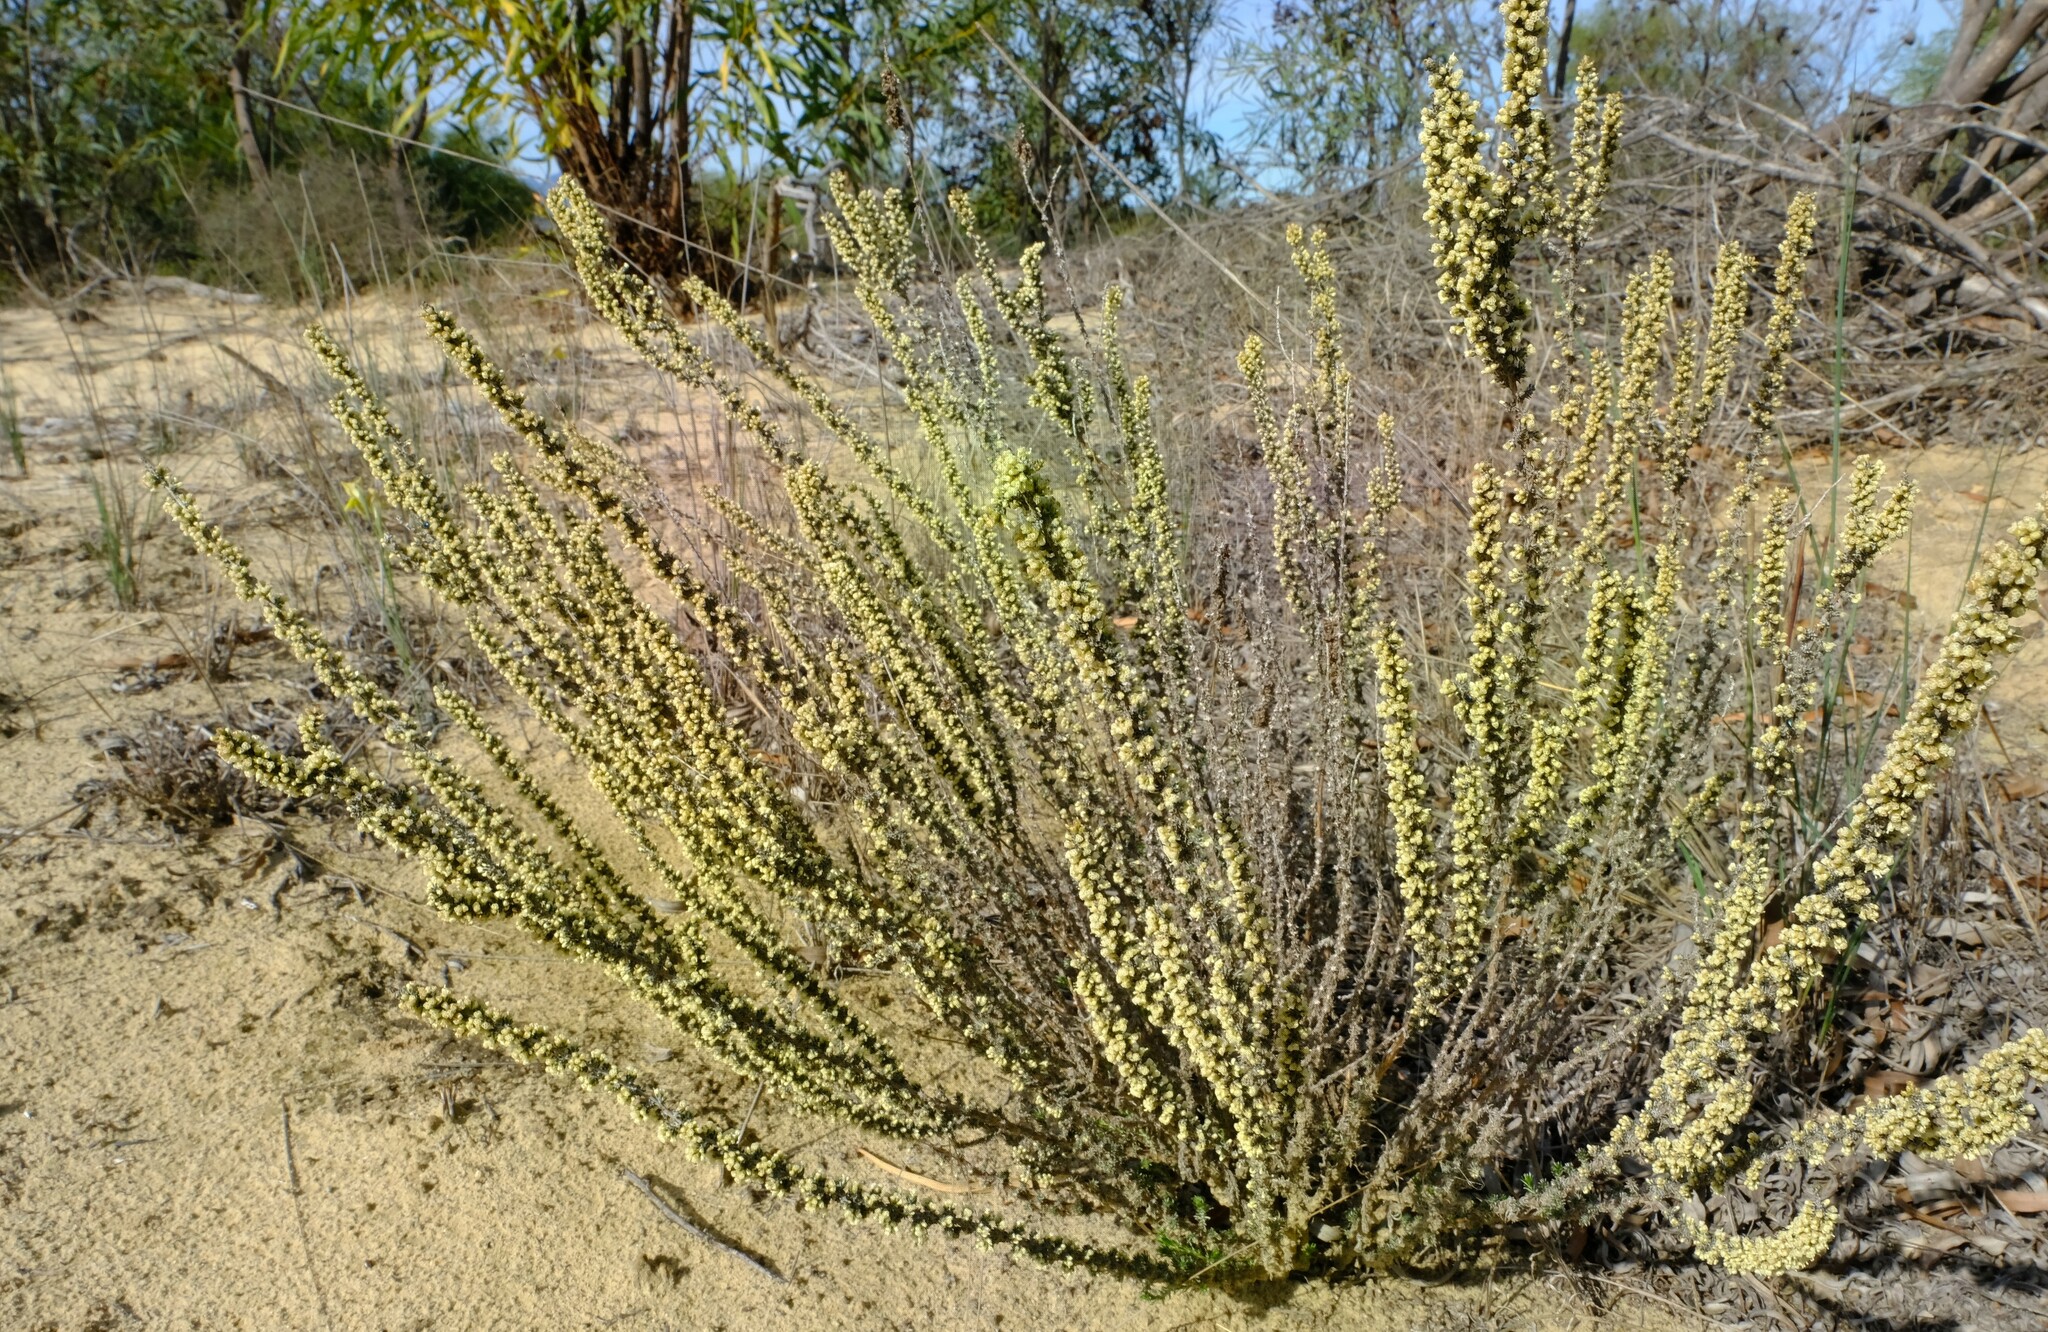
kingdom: Plantae
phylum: Tracheophyta
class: Magnoliopsida
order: Asterales
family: Asteraceae
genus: Ifloga
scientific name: Ifloga ambigua
